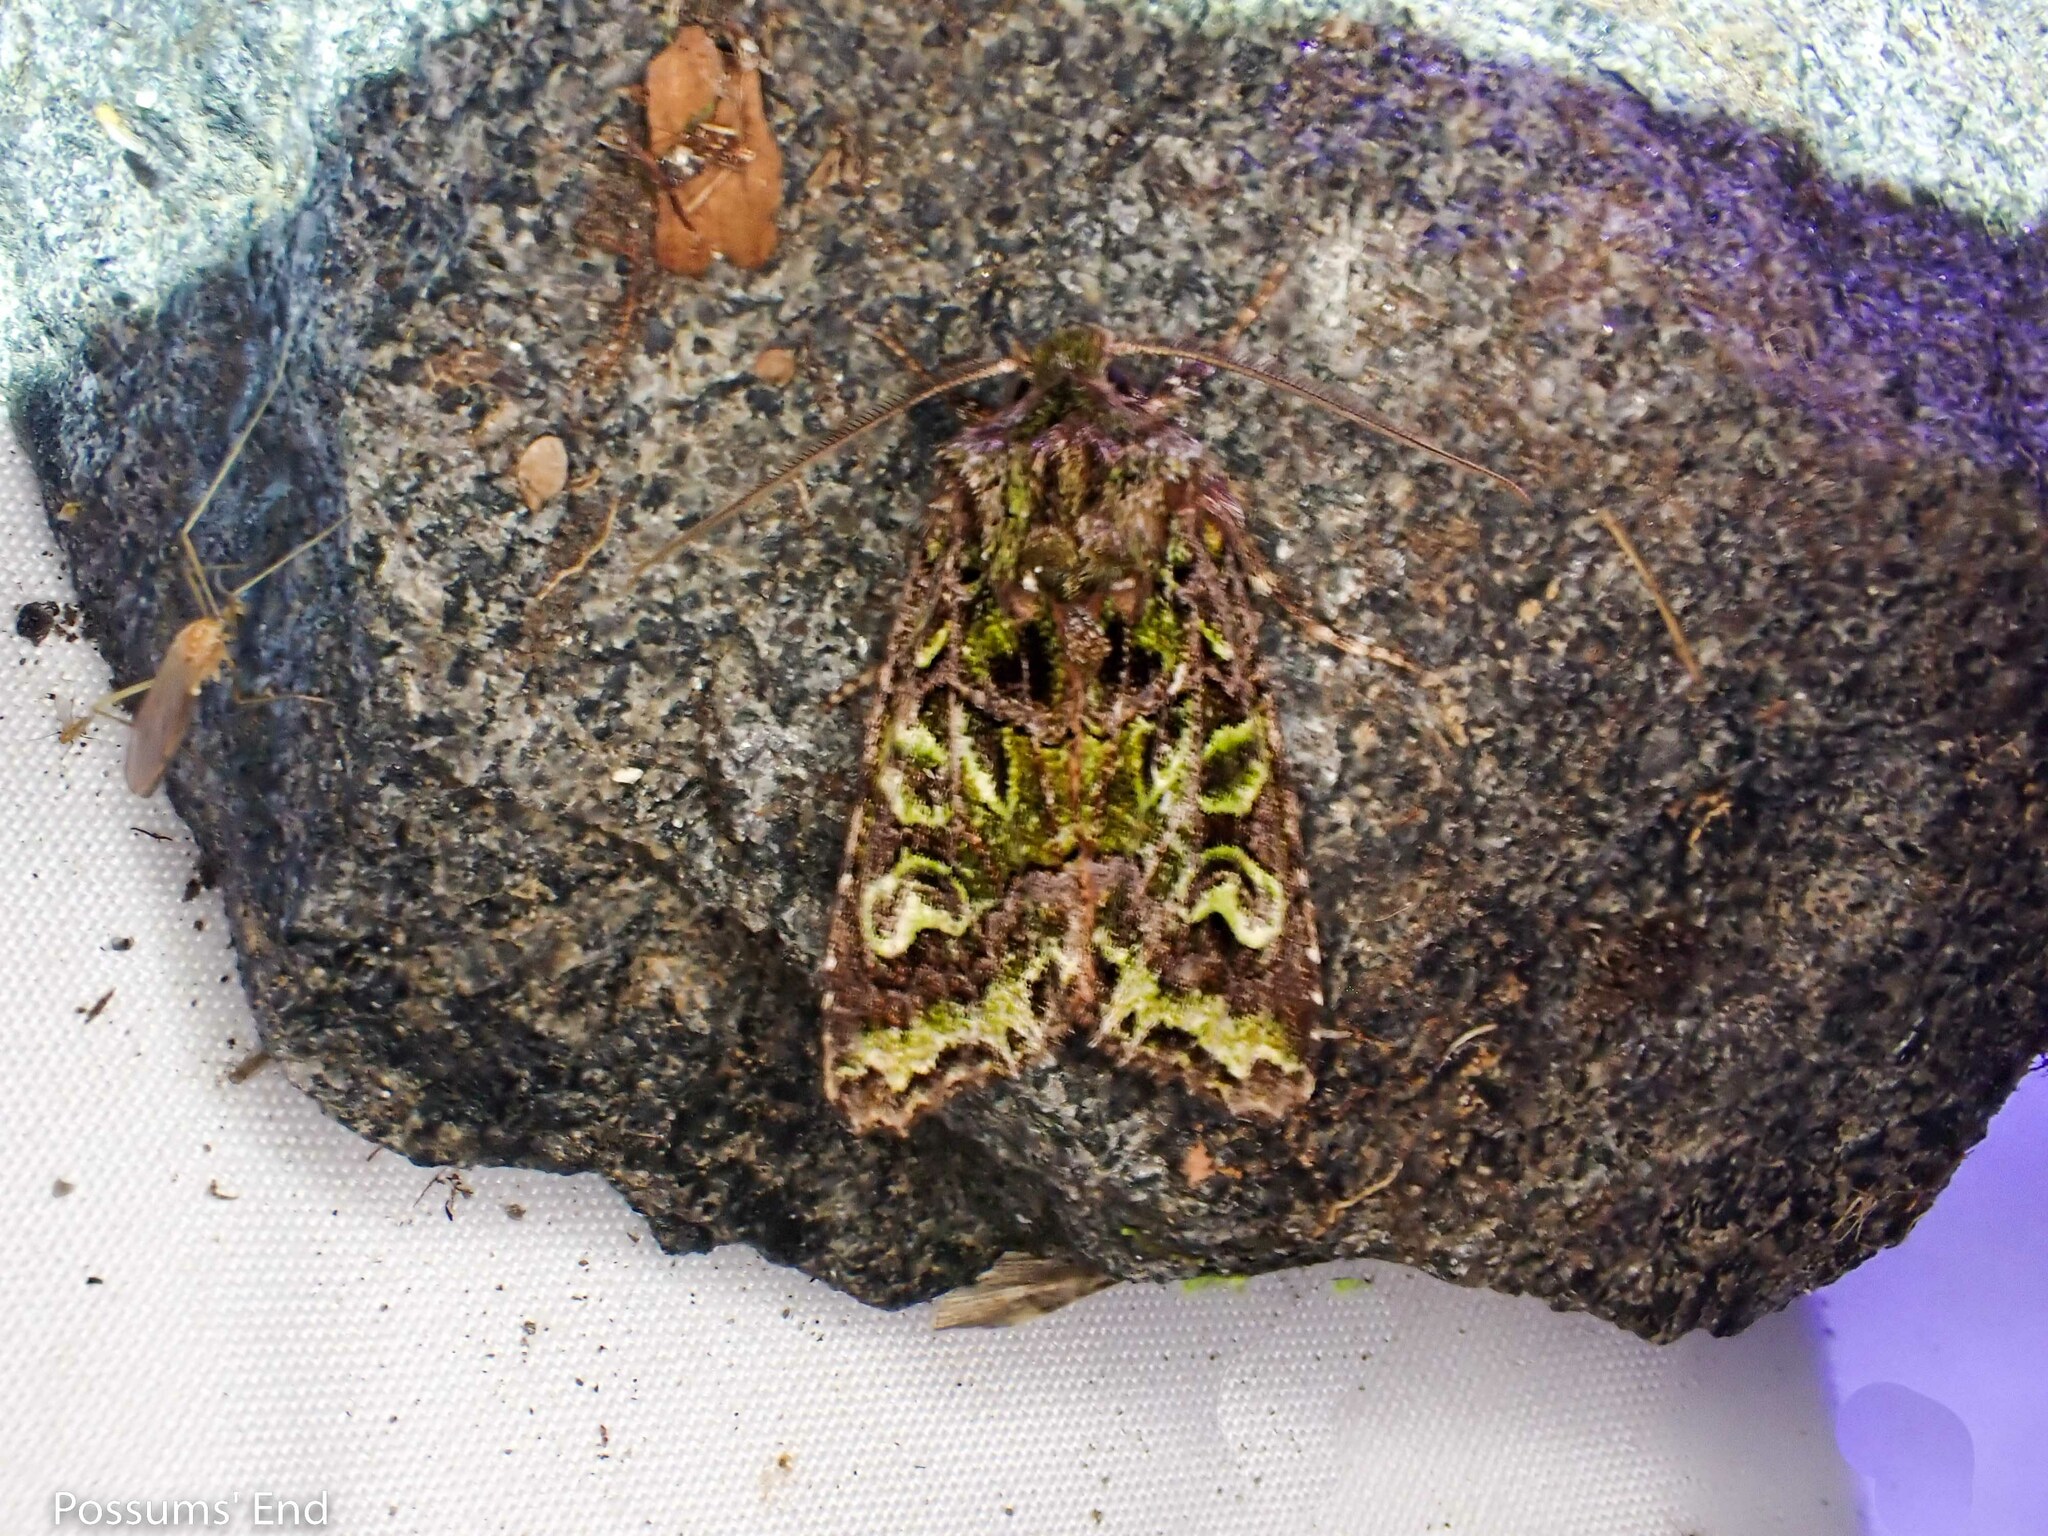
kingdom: Animalia
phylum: Arthropoda
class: Insecta
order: Lepidoptera
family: Noctuidae
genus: Ichneutica
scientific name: Ichneutica chlorodonta
